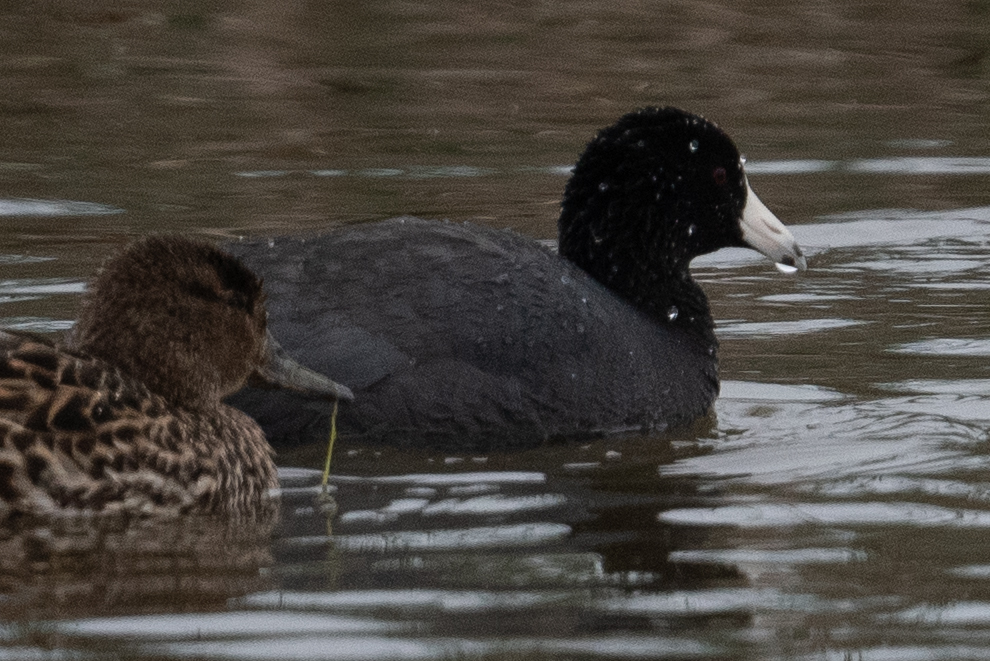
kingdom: Animalia
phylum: Chordata
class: Aves
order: Gruiformes
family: Rallidae
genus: Fulica
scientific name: Fulica americana
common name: American coot
